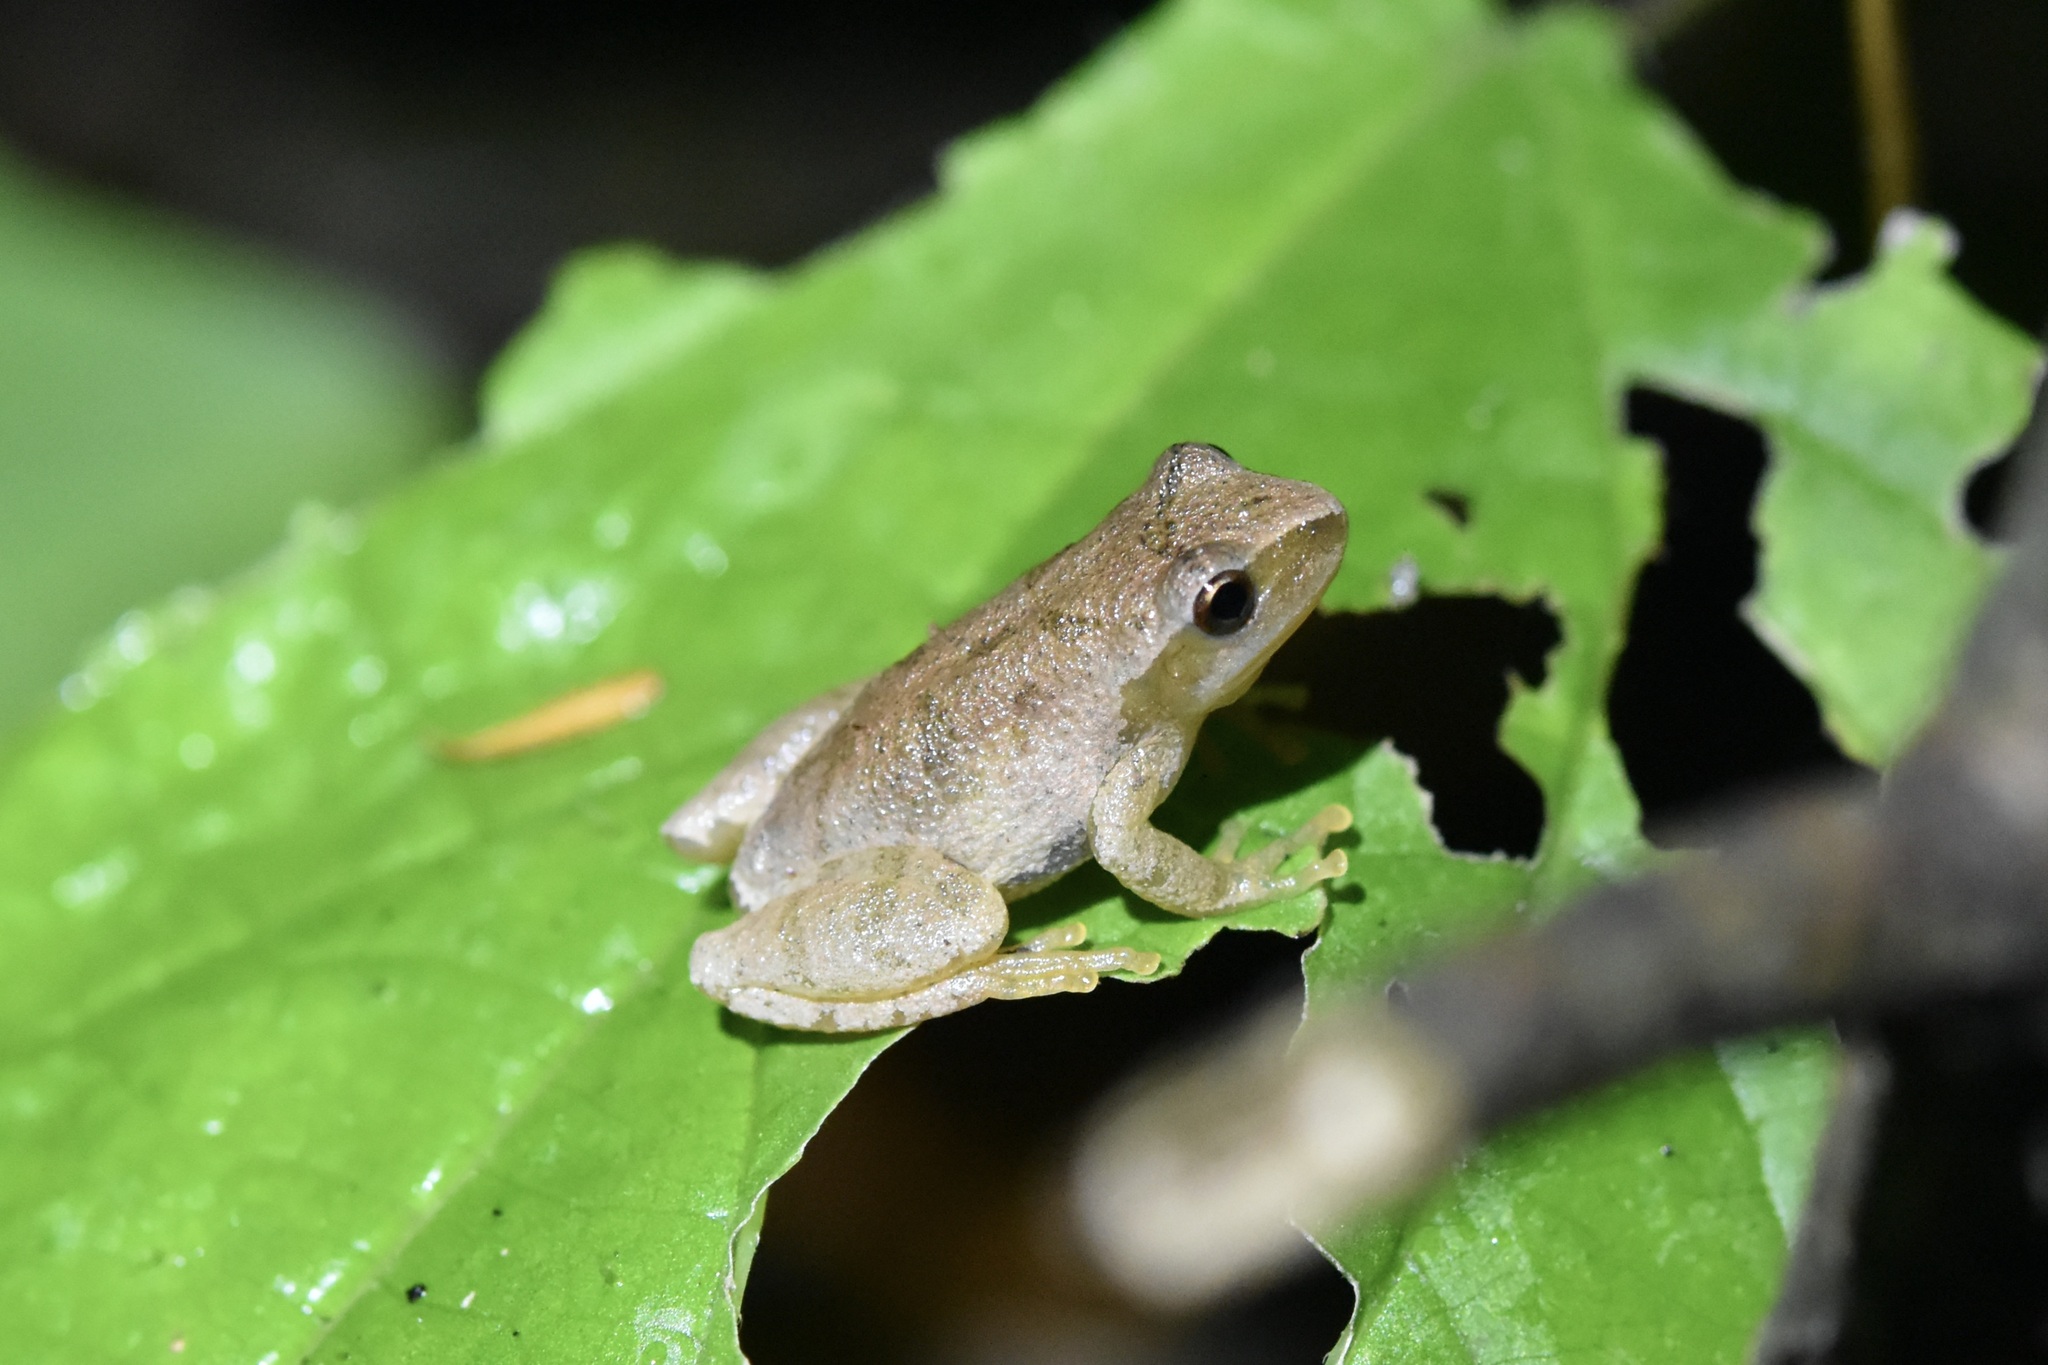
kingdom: Animalia
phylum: Chordata
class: Amphibia
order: Anura
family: Hylidae
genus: Pseudacris
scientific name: Pseudacris crucifer
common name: Spring peeper
